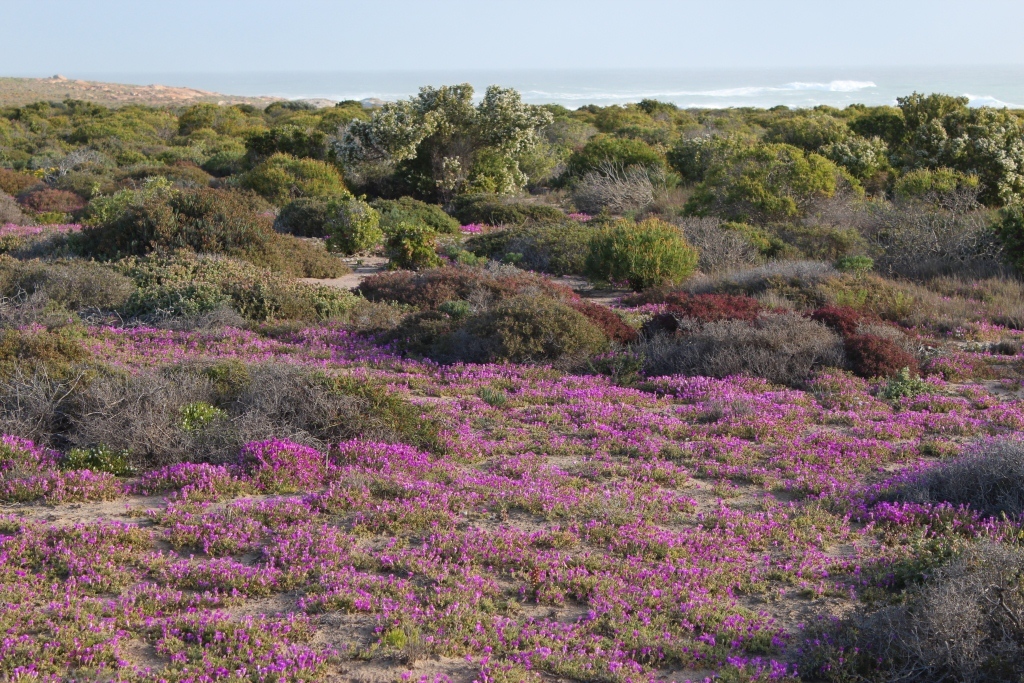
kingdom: Plantae
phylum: Tracheophyta
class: Magnoliopsida
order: Caryophyllales
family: Aizoaceae
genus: Drosanthemum
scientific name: Drosanthemum latipetalum
